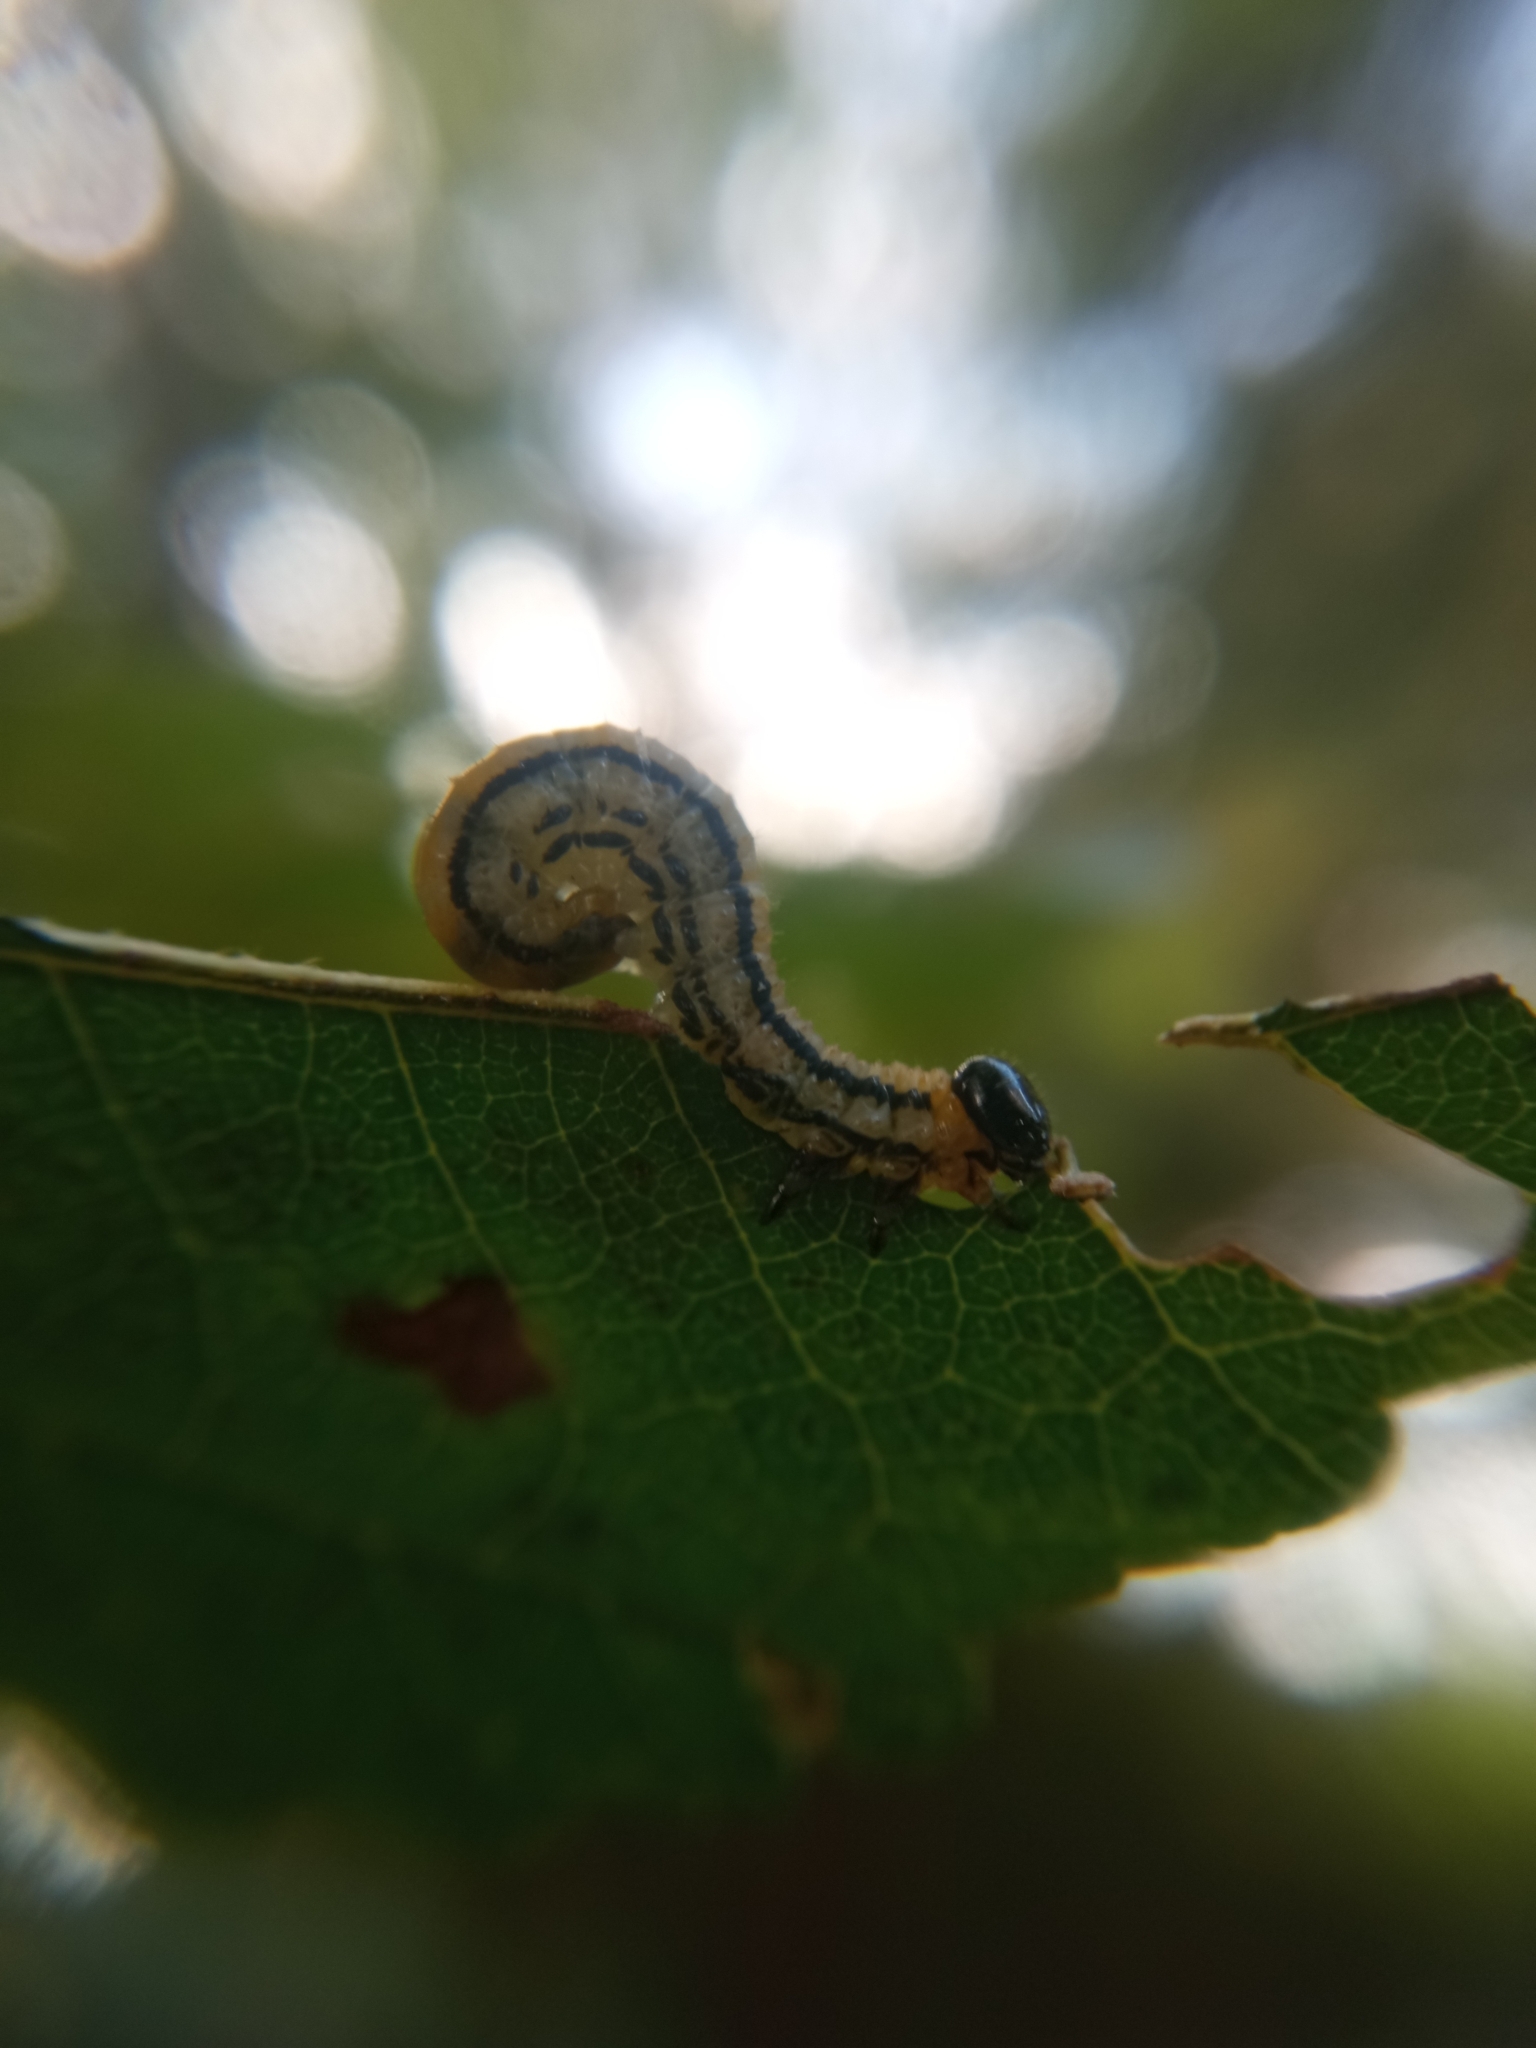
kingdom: Animalia
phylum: Arthropoda
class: Insecta
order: Hymenoptera
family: Tenthredinidae
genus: Hemichroa
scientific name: Hemichroa crocea
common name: Striped alder sawfly
